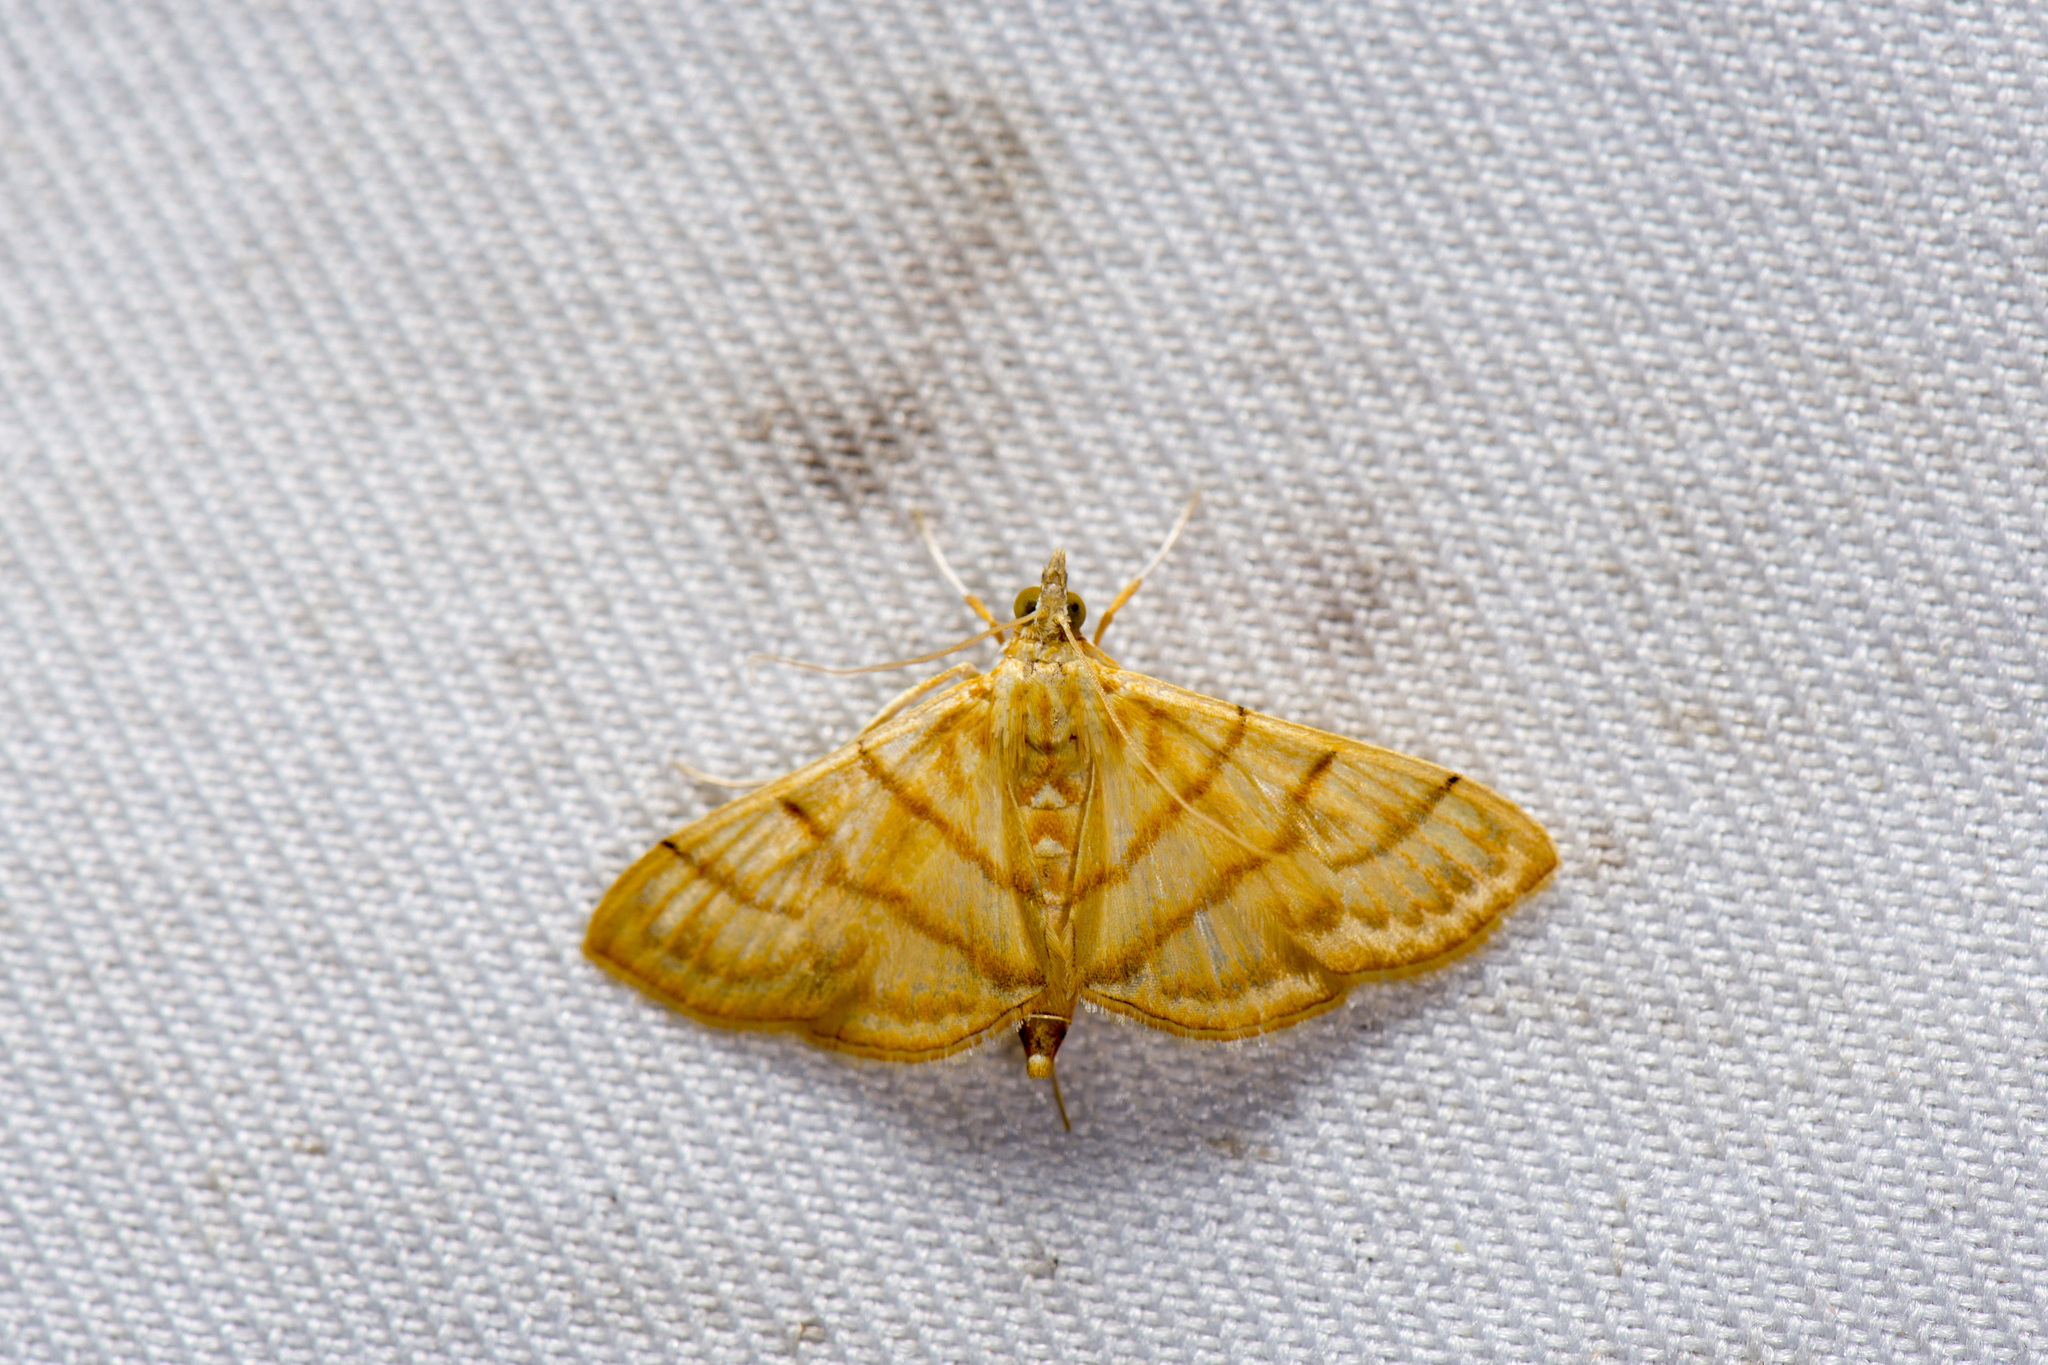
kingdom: Animalia
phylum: Arthropoda
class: Insecta
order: Lepidoptera
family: Crambidae
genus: Pagyda
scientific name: Pagyda botydalis
